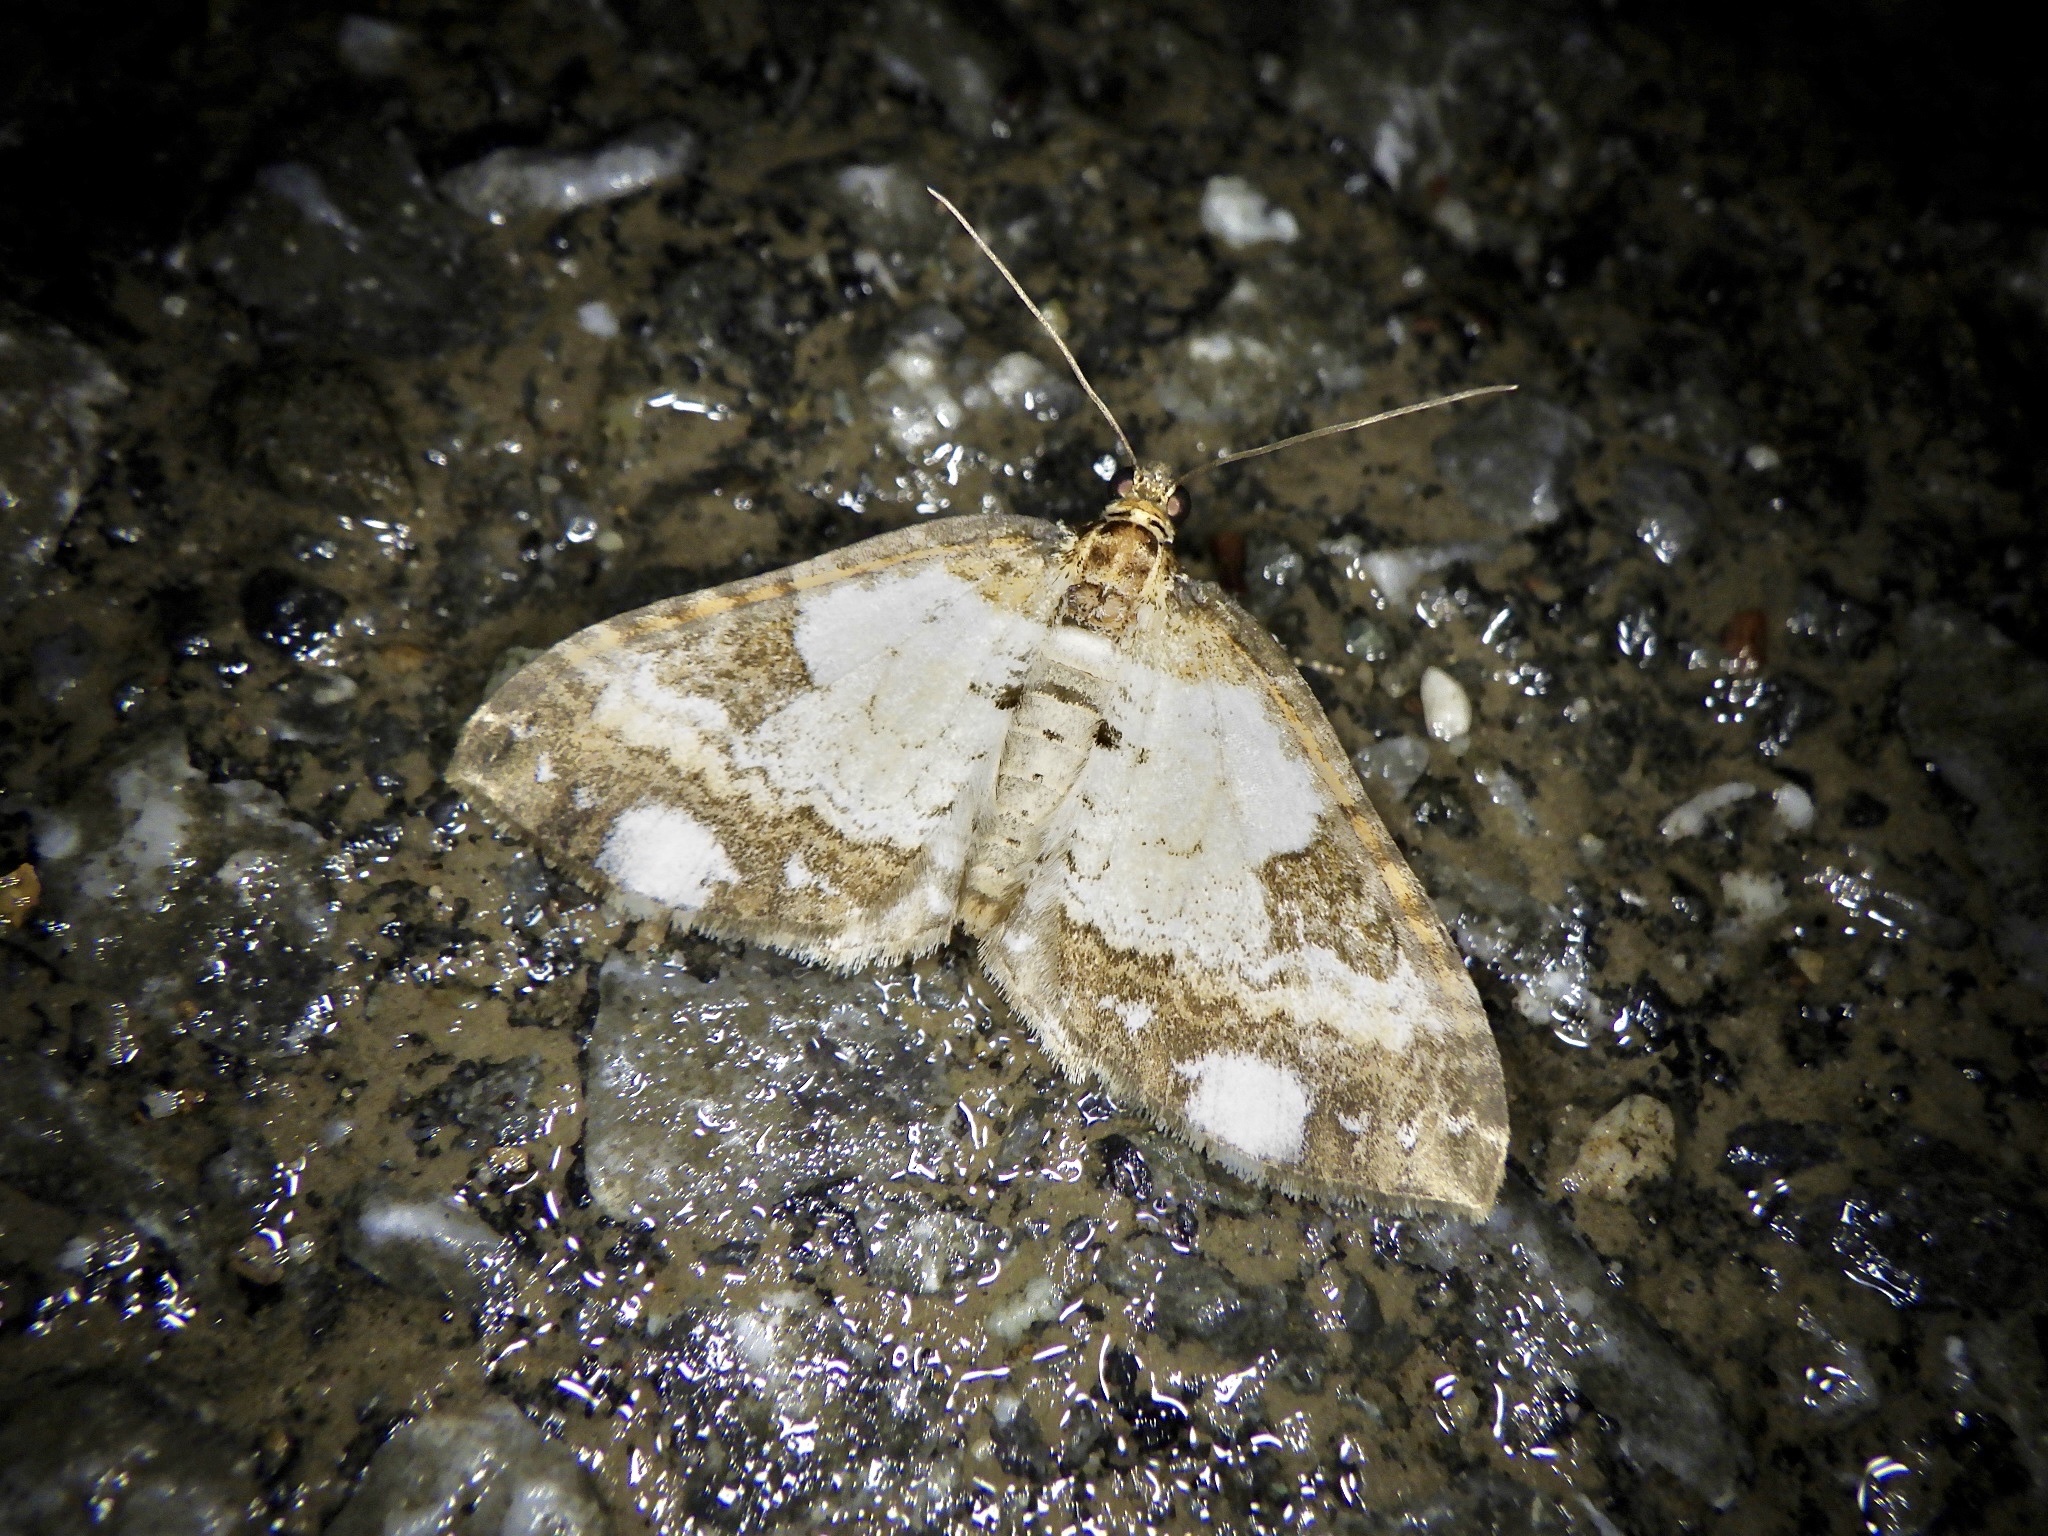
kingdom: Animalia
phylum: Arthropoda
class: Insecta
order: Lepidoptera
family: Geometridae
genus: Melanthia
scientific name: Melanthia procellata
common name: Pretty chalk carpet
